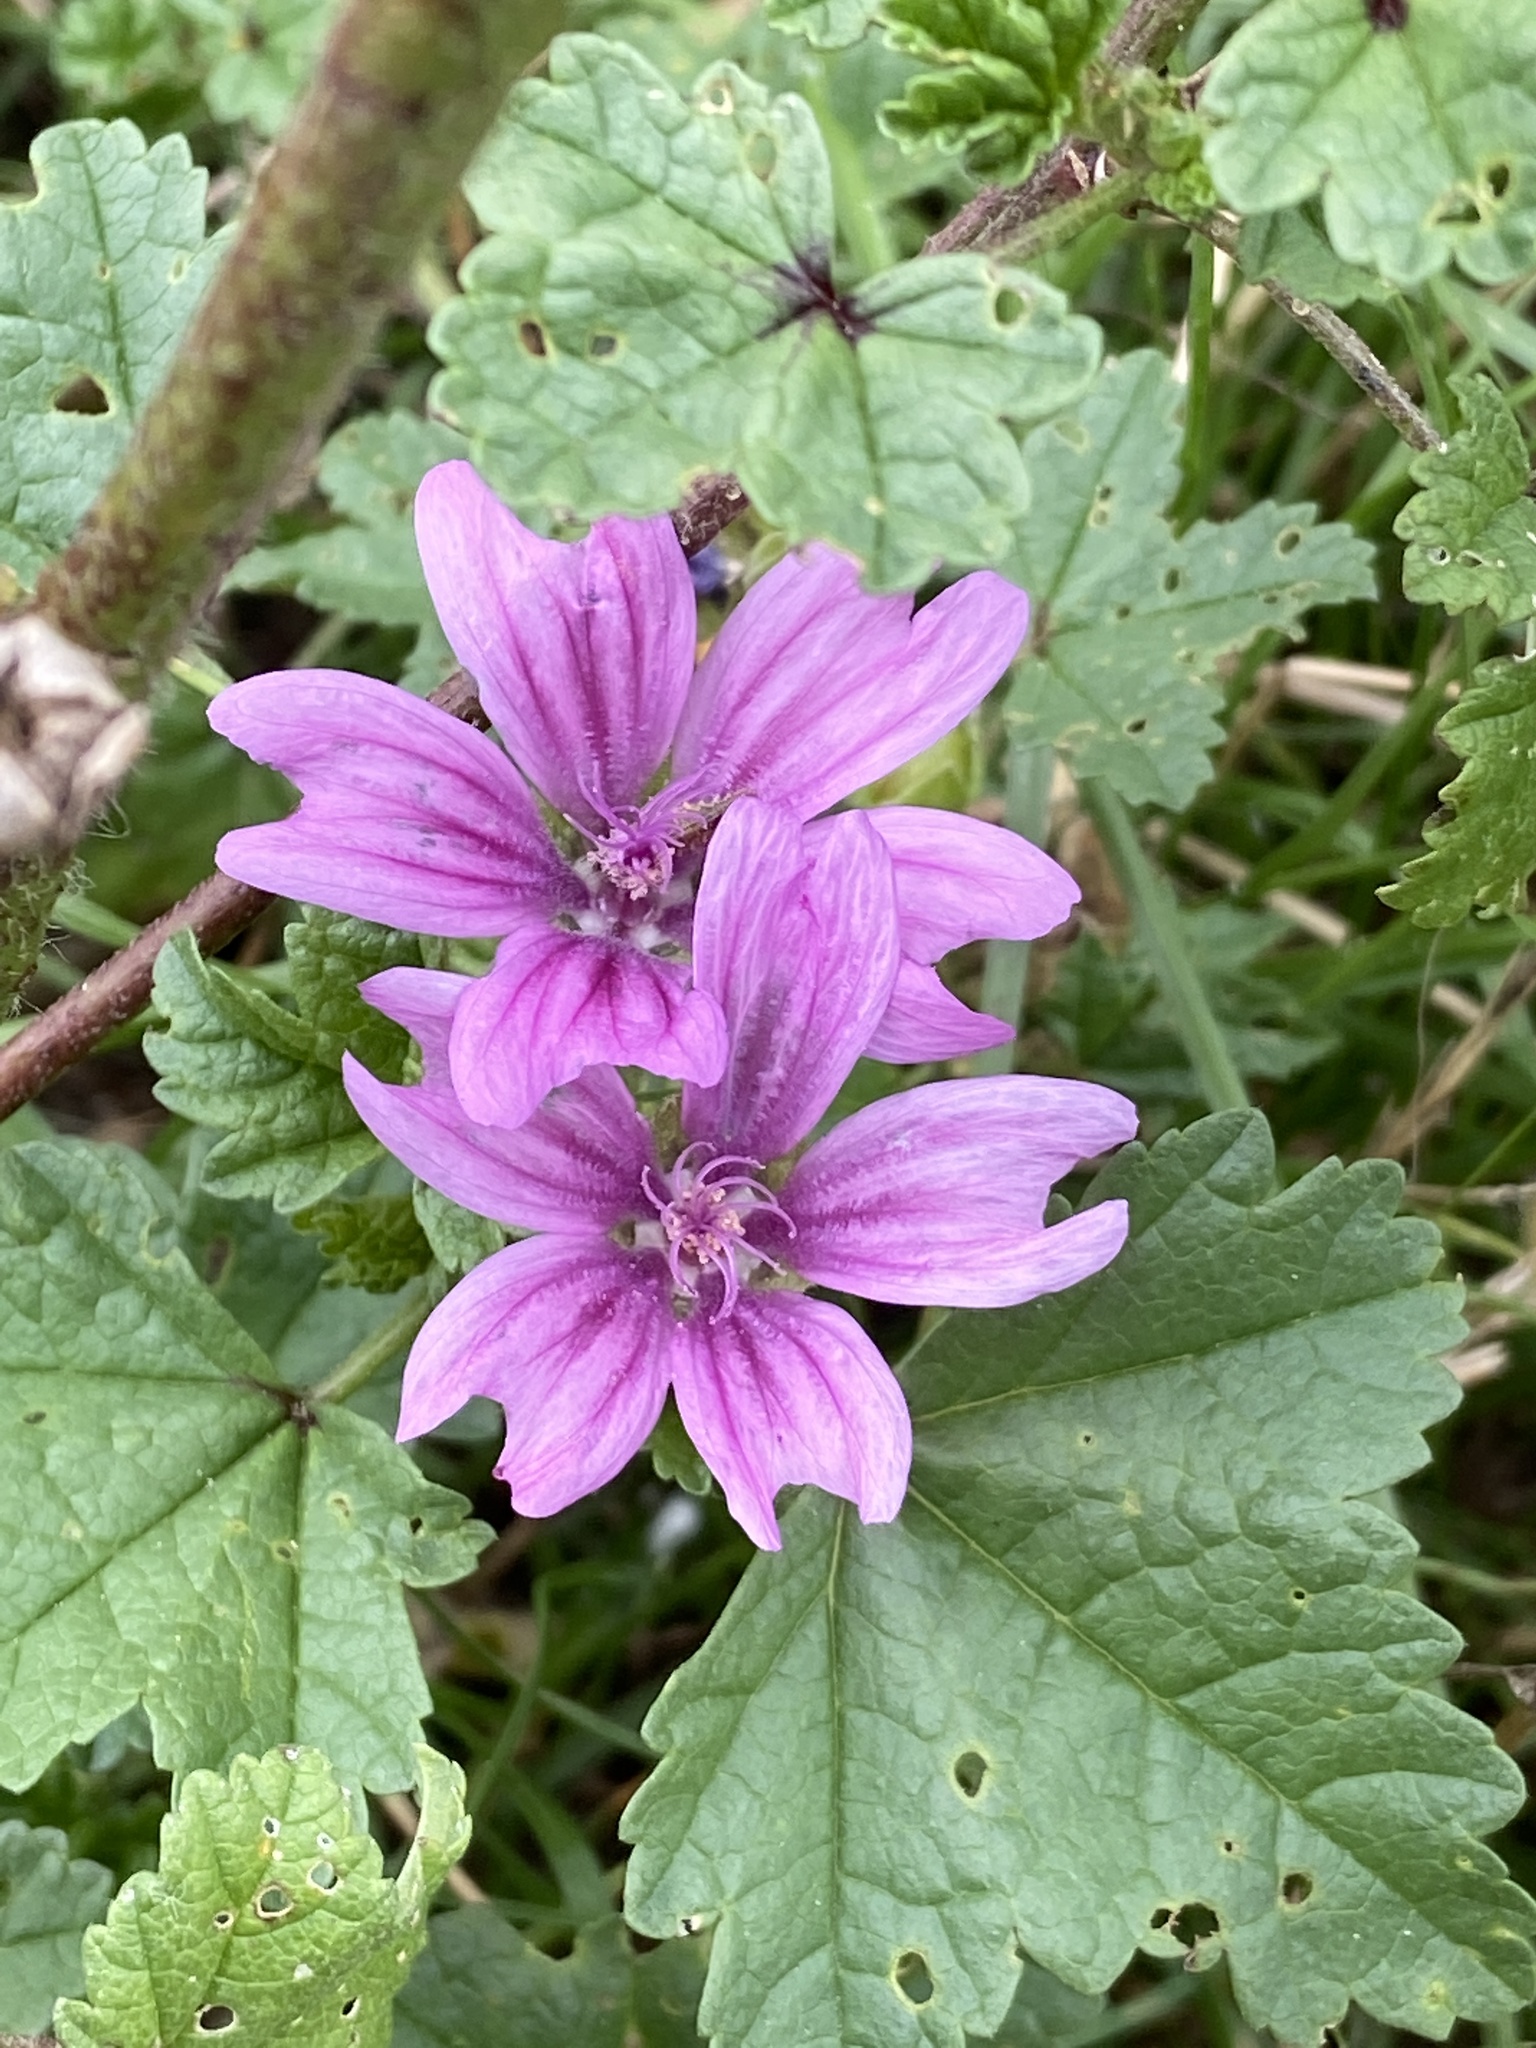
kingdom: Plantae
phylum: Tracheophyta
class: Magnoliopsida
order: Malvales
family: Malvaceae
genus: Malva
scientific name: Malva sylvestris
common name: Common mallow
